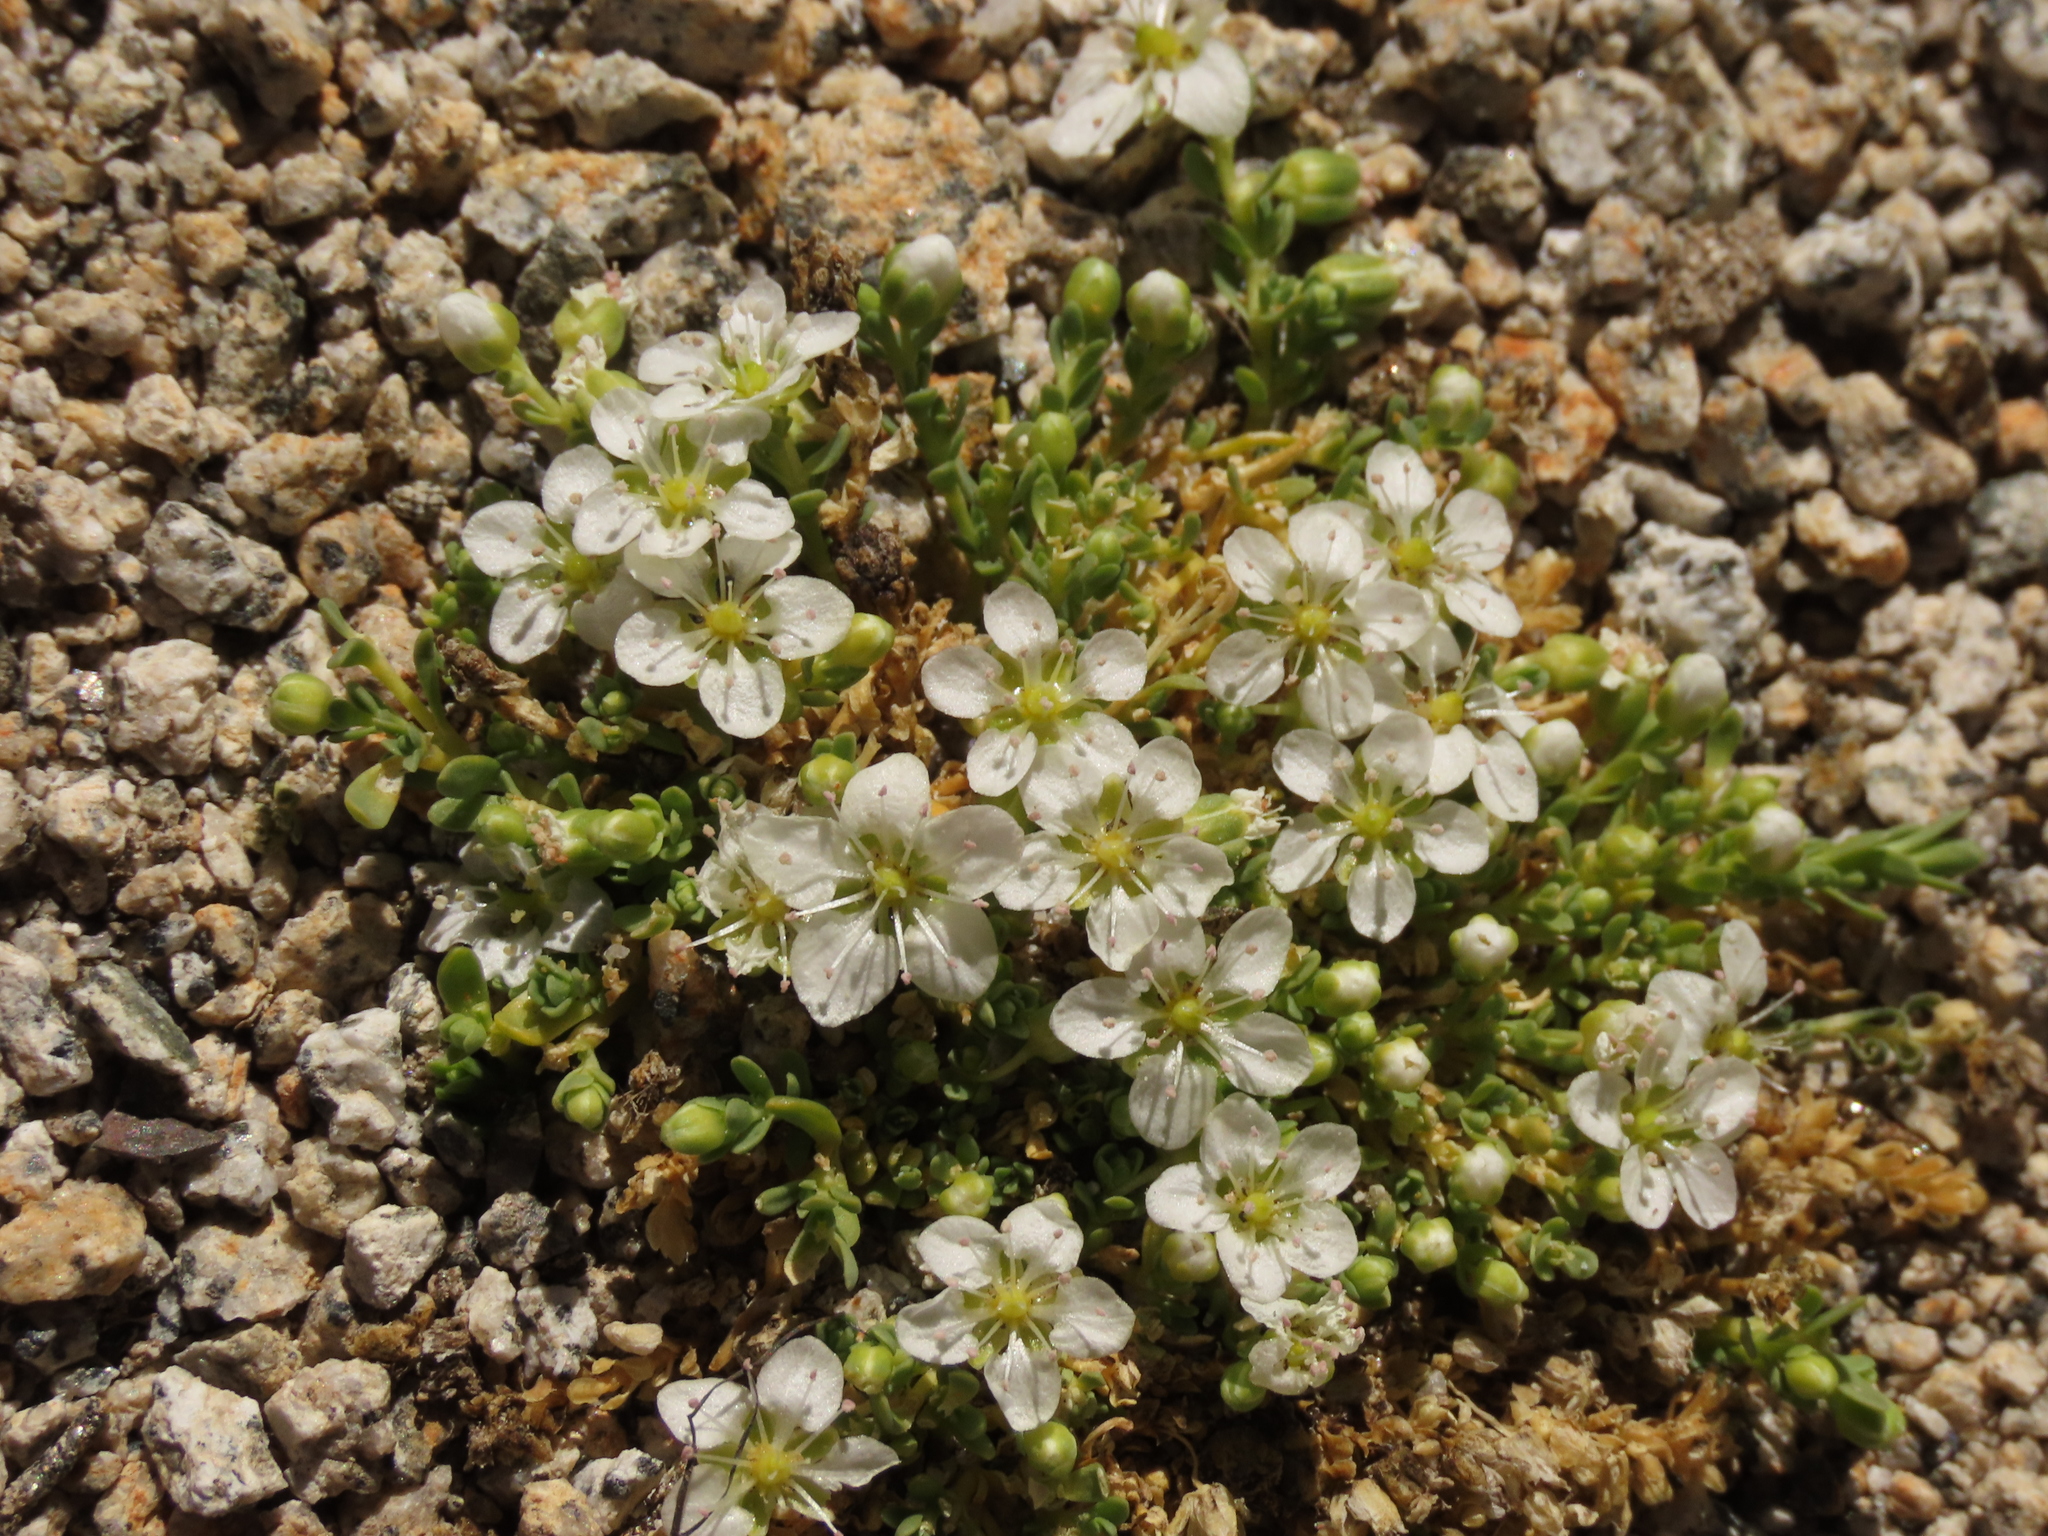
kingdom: Plantae
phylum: Tracheophyta
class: Magnoliopsida
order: Caryophyllales
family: Caryophyllaceae
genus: Arenaria
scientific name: Arenaria serpens
